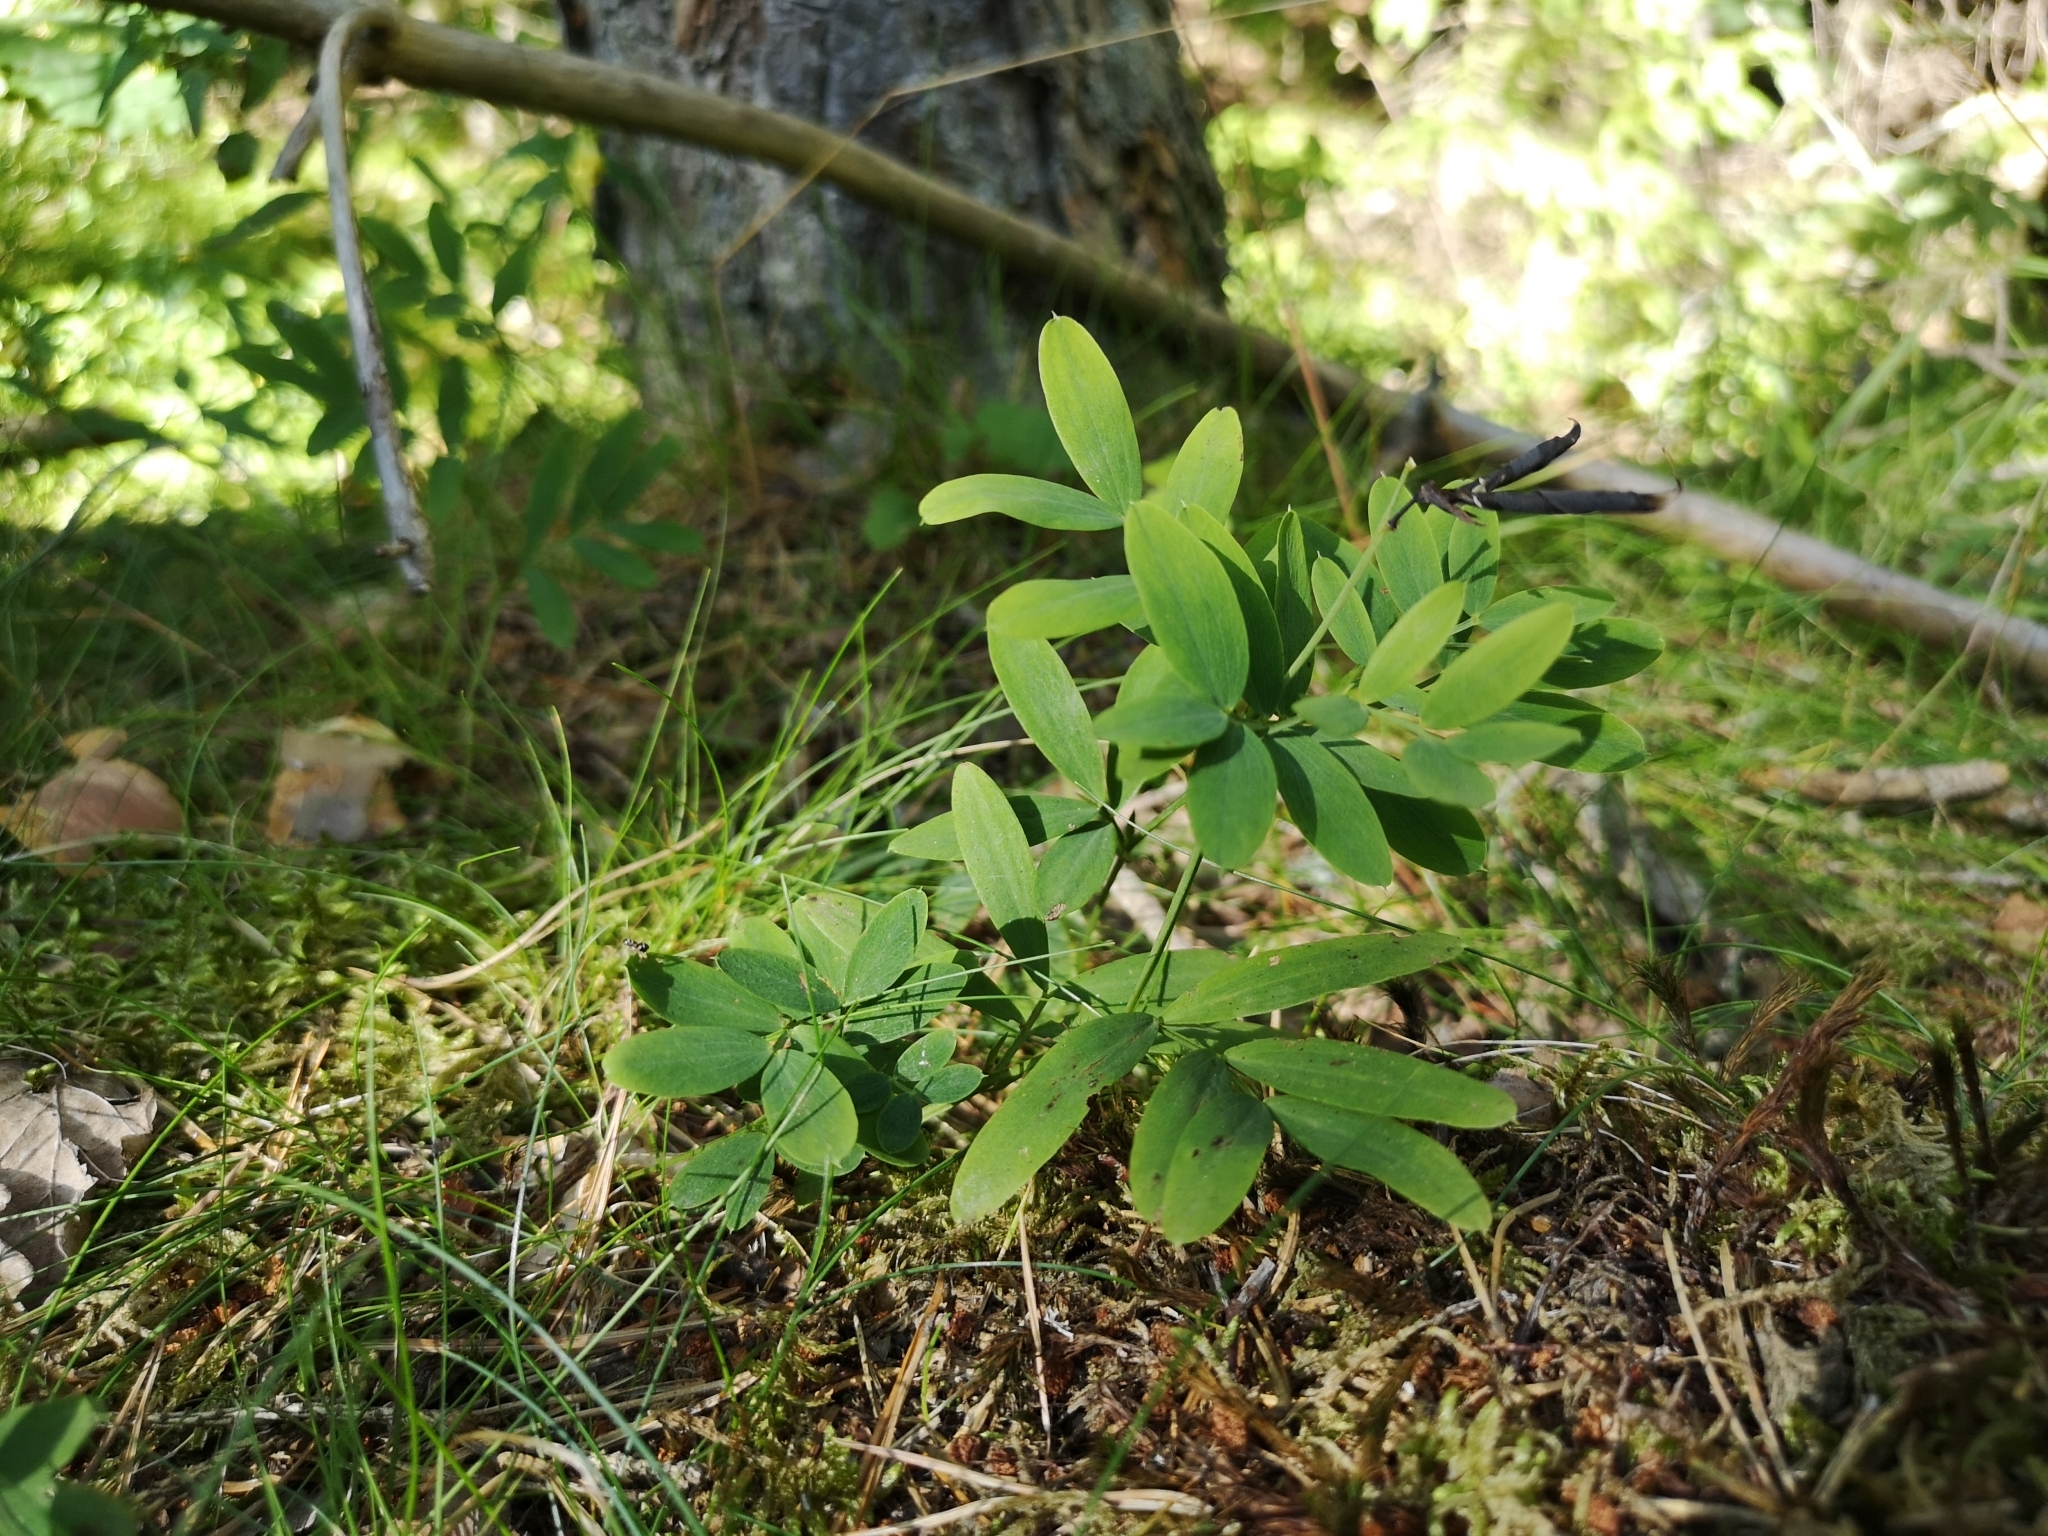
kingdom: Plantae
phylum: Tracheophyta
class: Magnoliopsida
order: Fabales
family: Fabaceae
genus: Lathyrus
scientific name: Lathyrus linifolius
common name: Bitter-vetch
